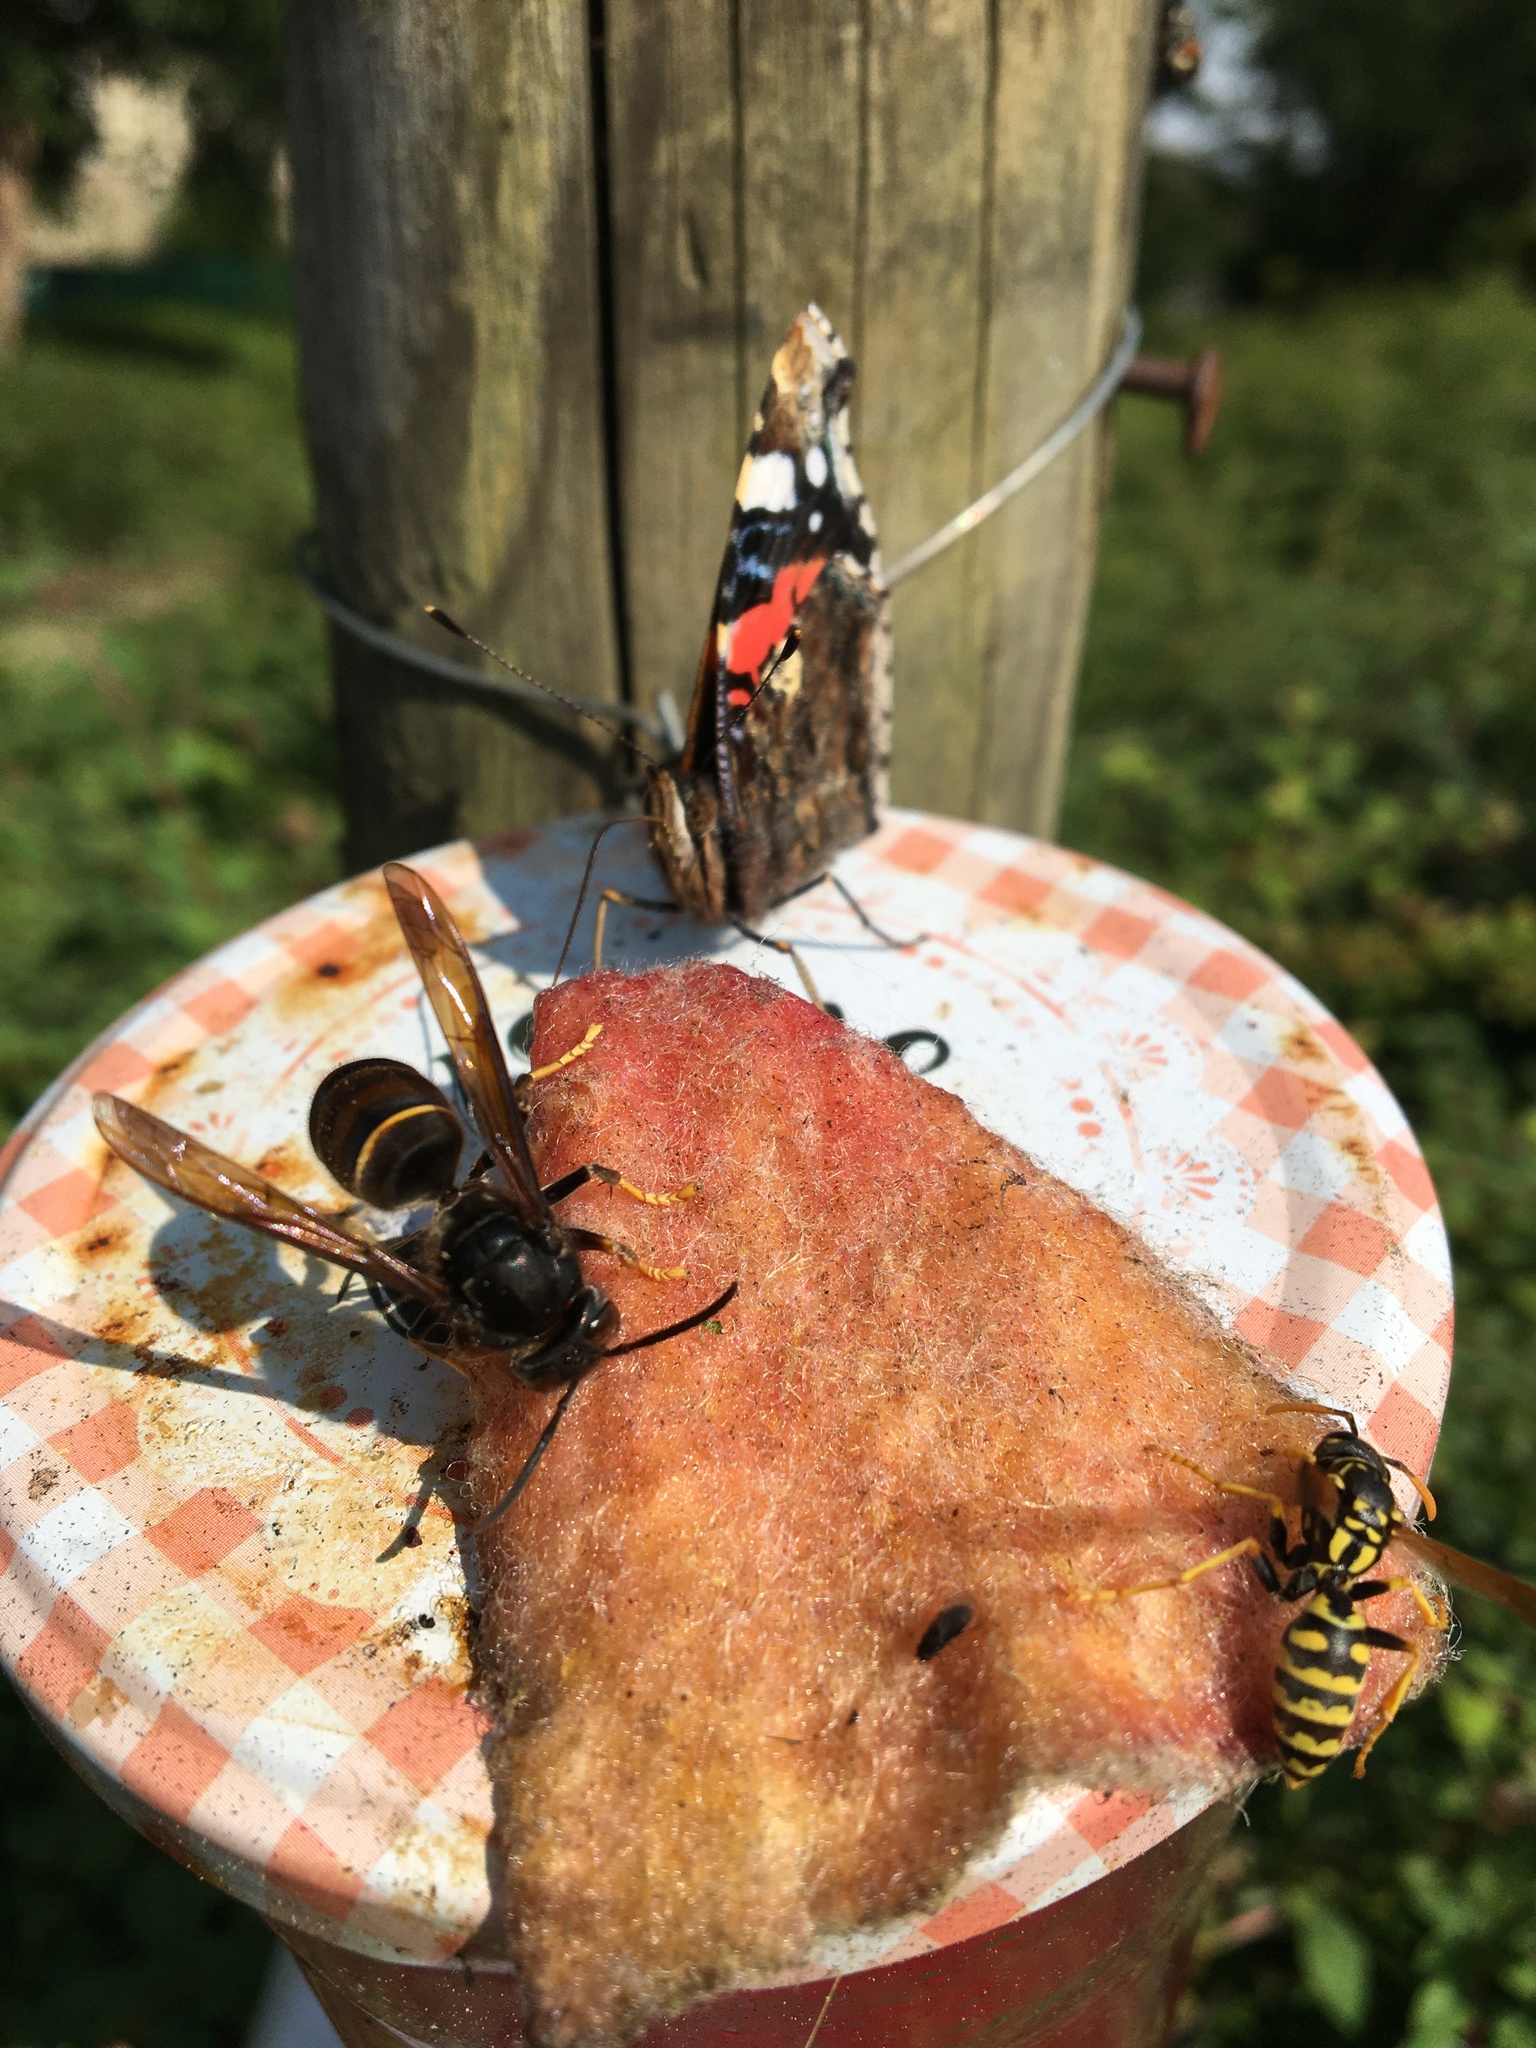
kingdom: Animalia
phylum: Arthropoda
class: Insecta
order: Hymenoptera
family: Vespidae
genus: Vespa
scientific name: Vespa velutina
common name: Asian hornet
